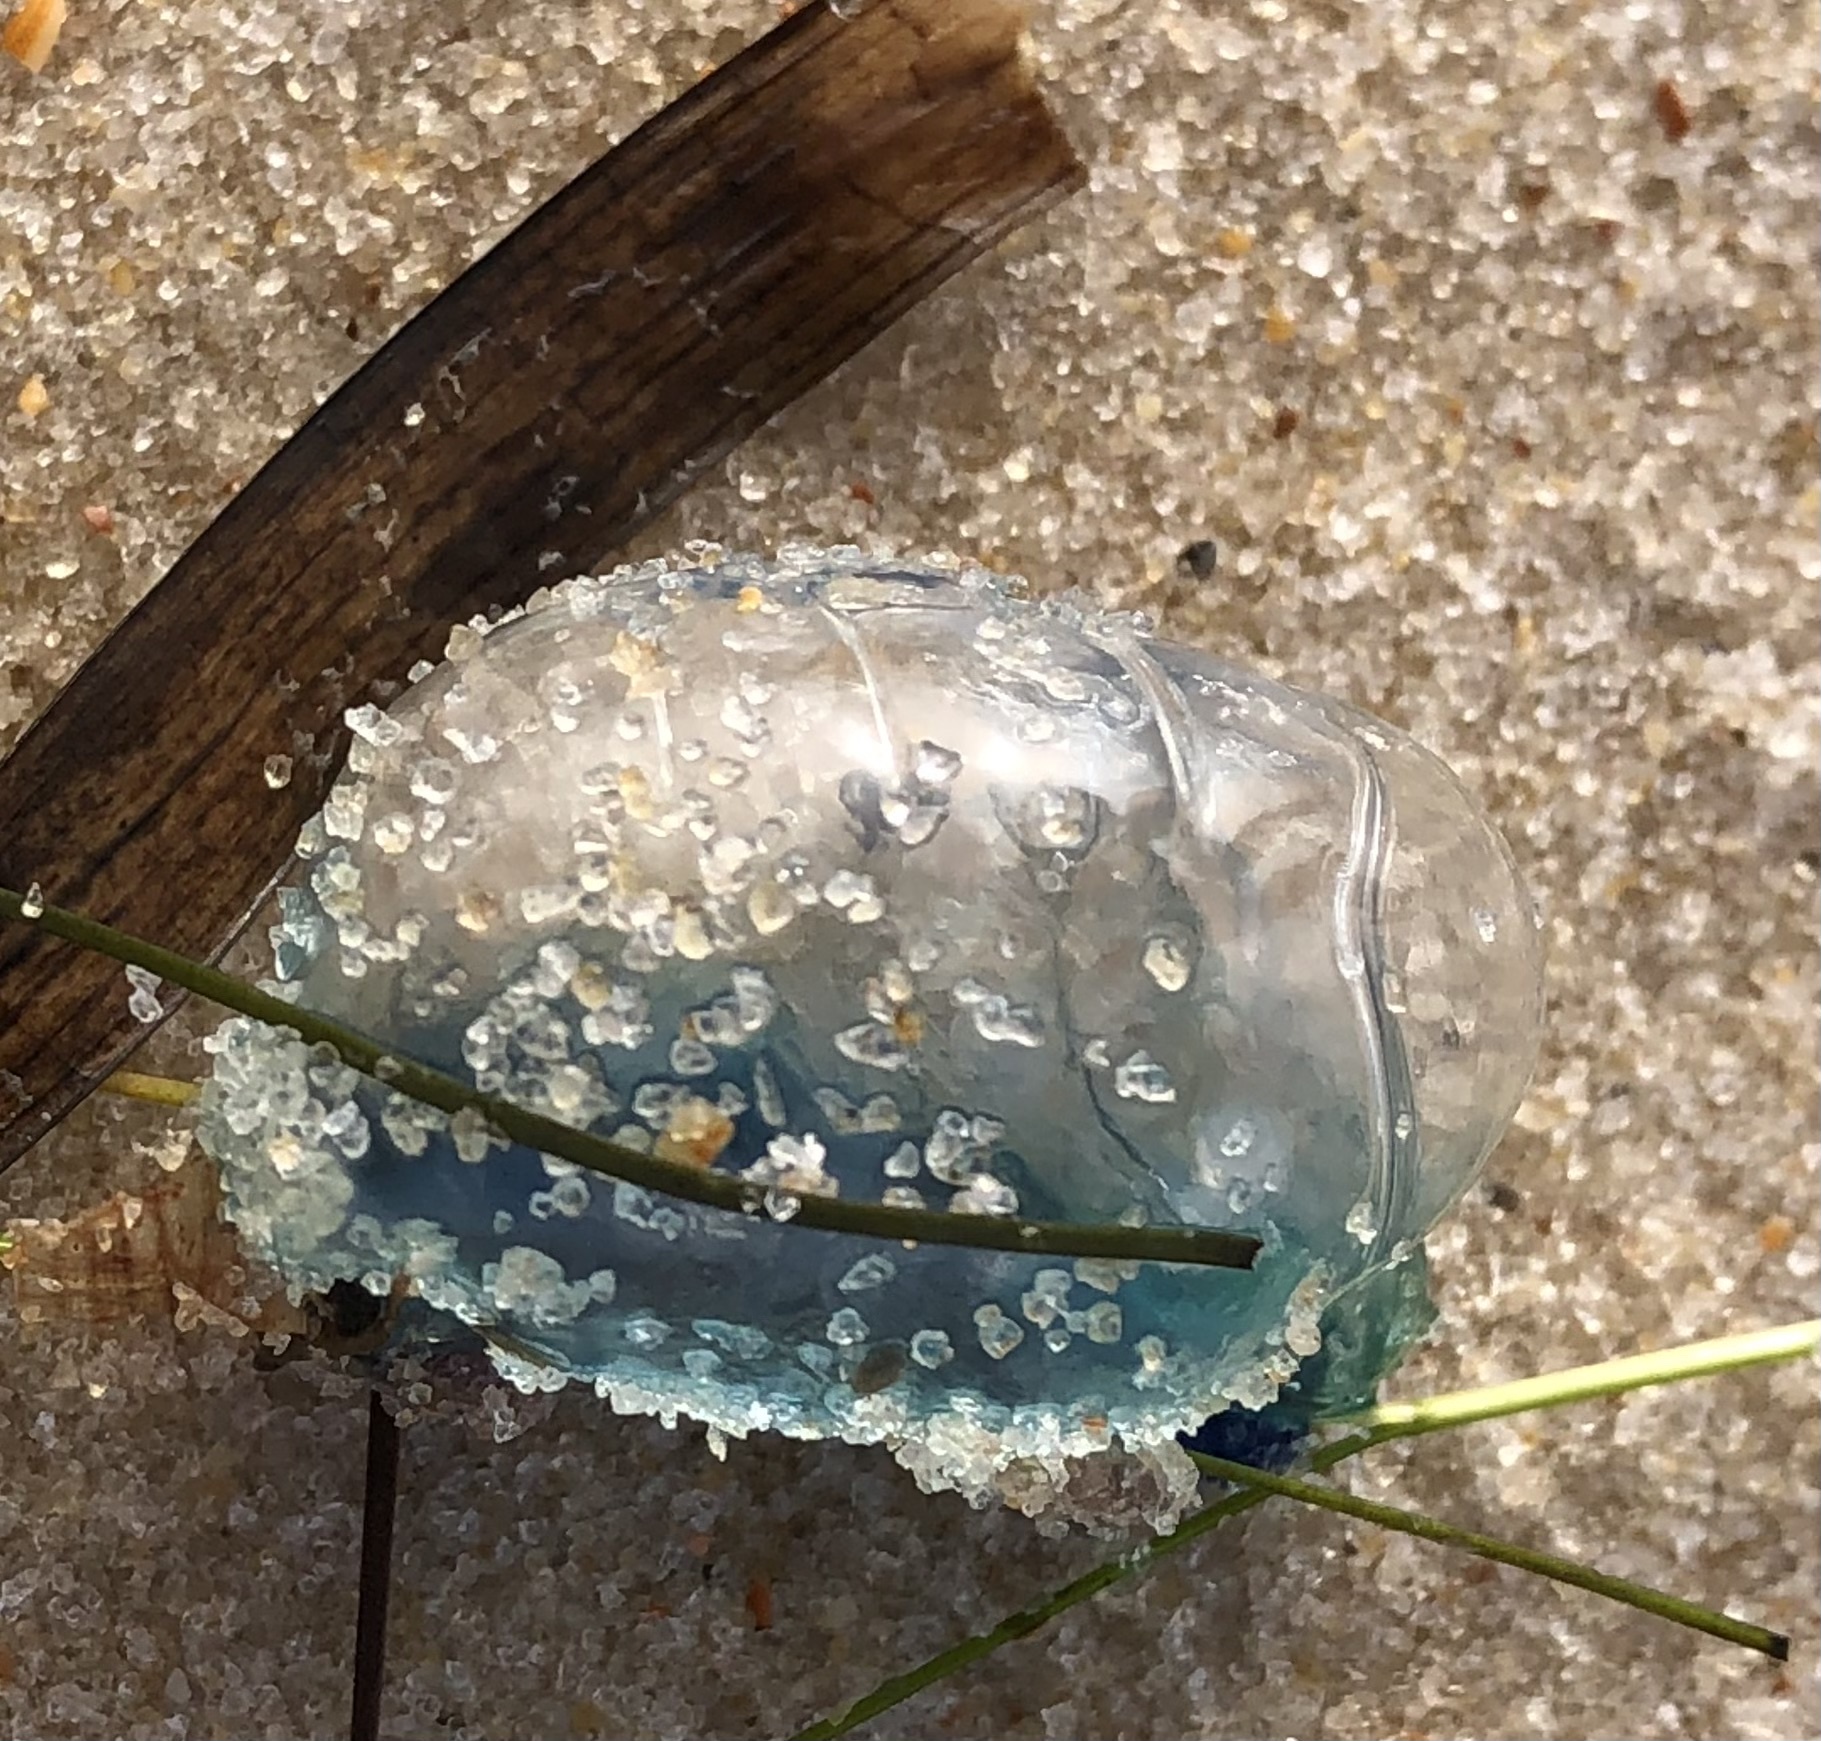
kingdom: Animalia
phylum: Cnidaria
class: Hydrozoa
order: Siphonophorae
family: Physaliidae
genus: Physalia
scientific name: Physalia physalis
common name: Portuguese man-of-war
